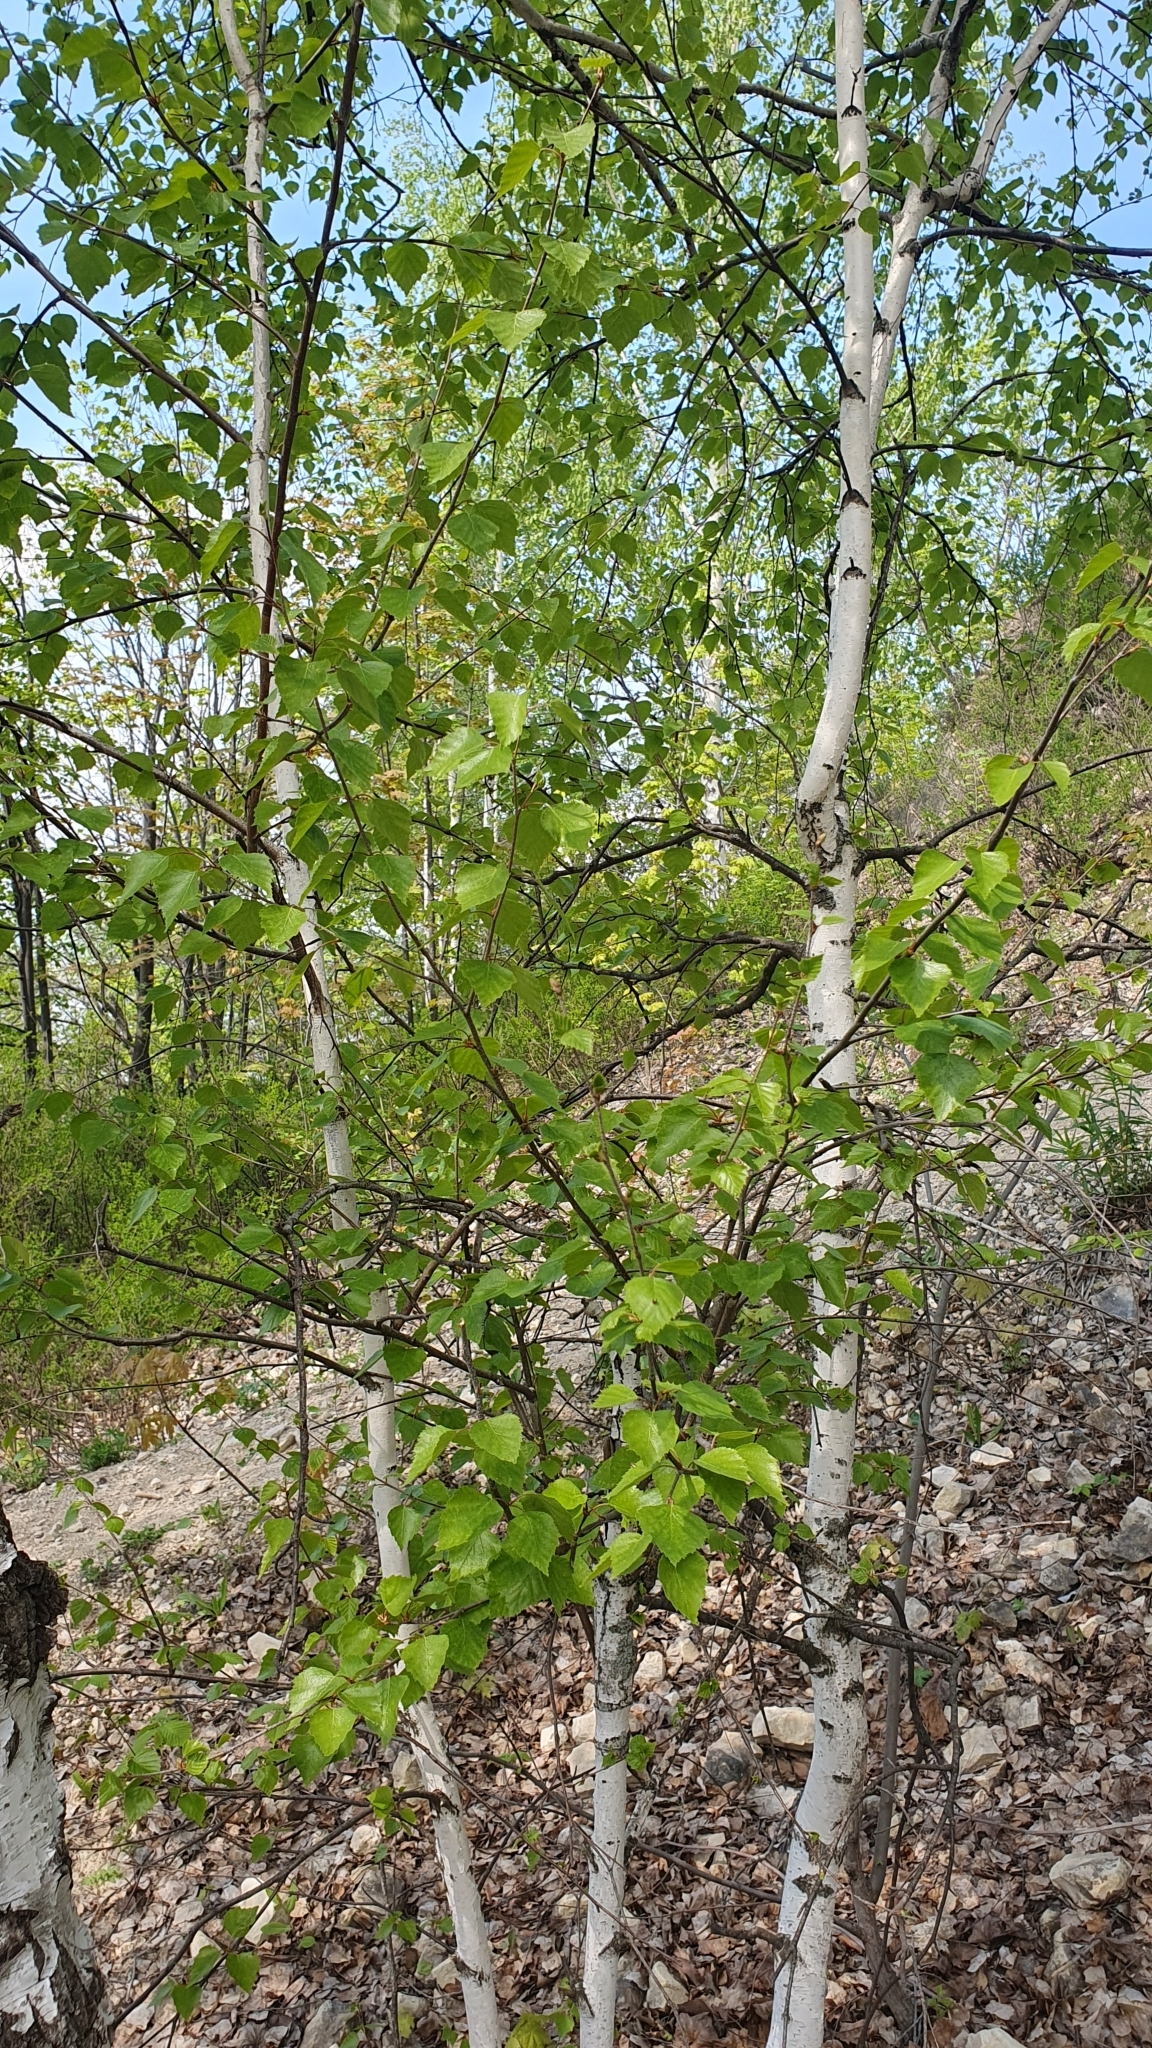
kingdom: Plantae
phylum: Tracheophyta
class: Magnoliopsida
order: Fagales
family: Betulaceae
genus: Betula
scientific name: Betula pendula
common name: Silver birch
